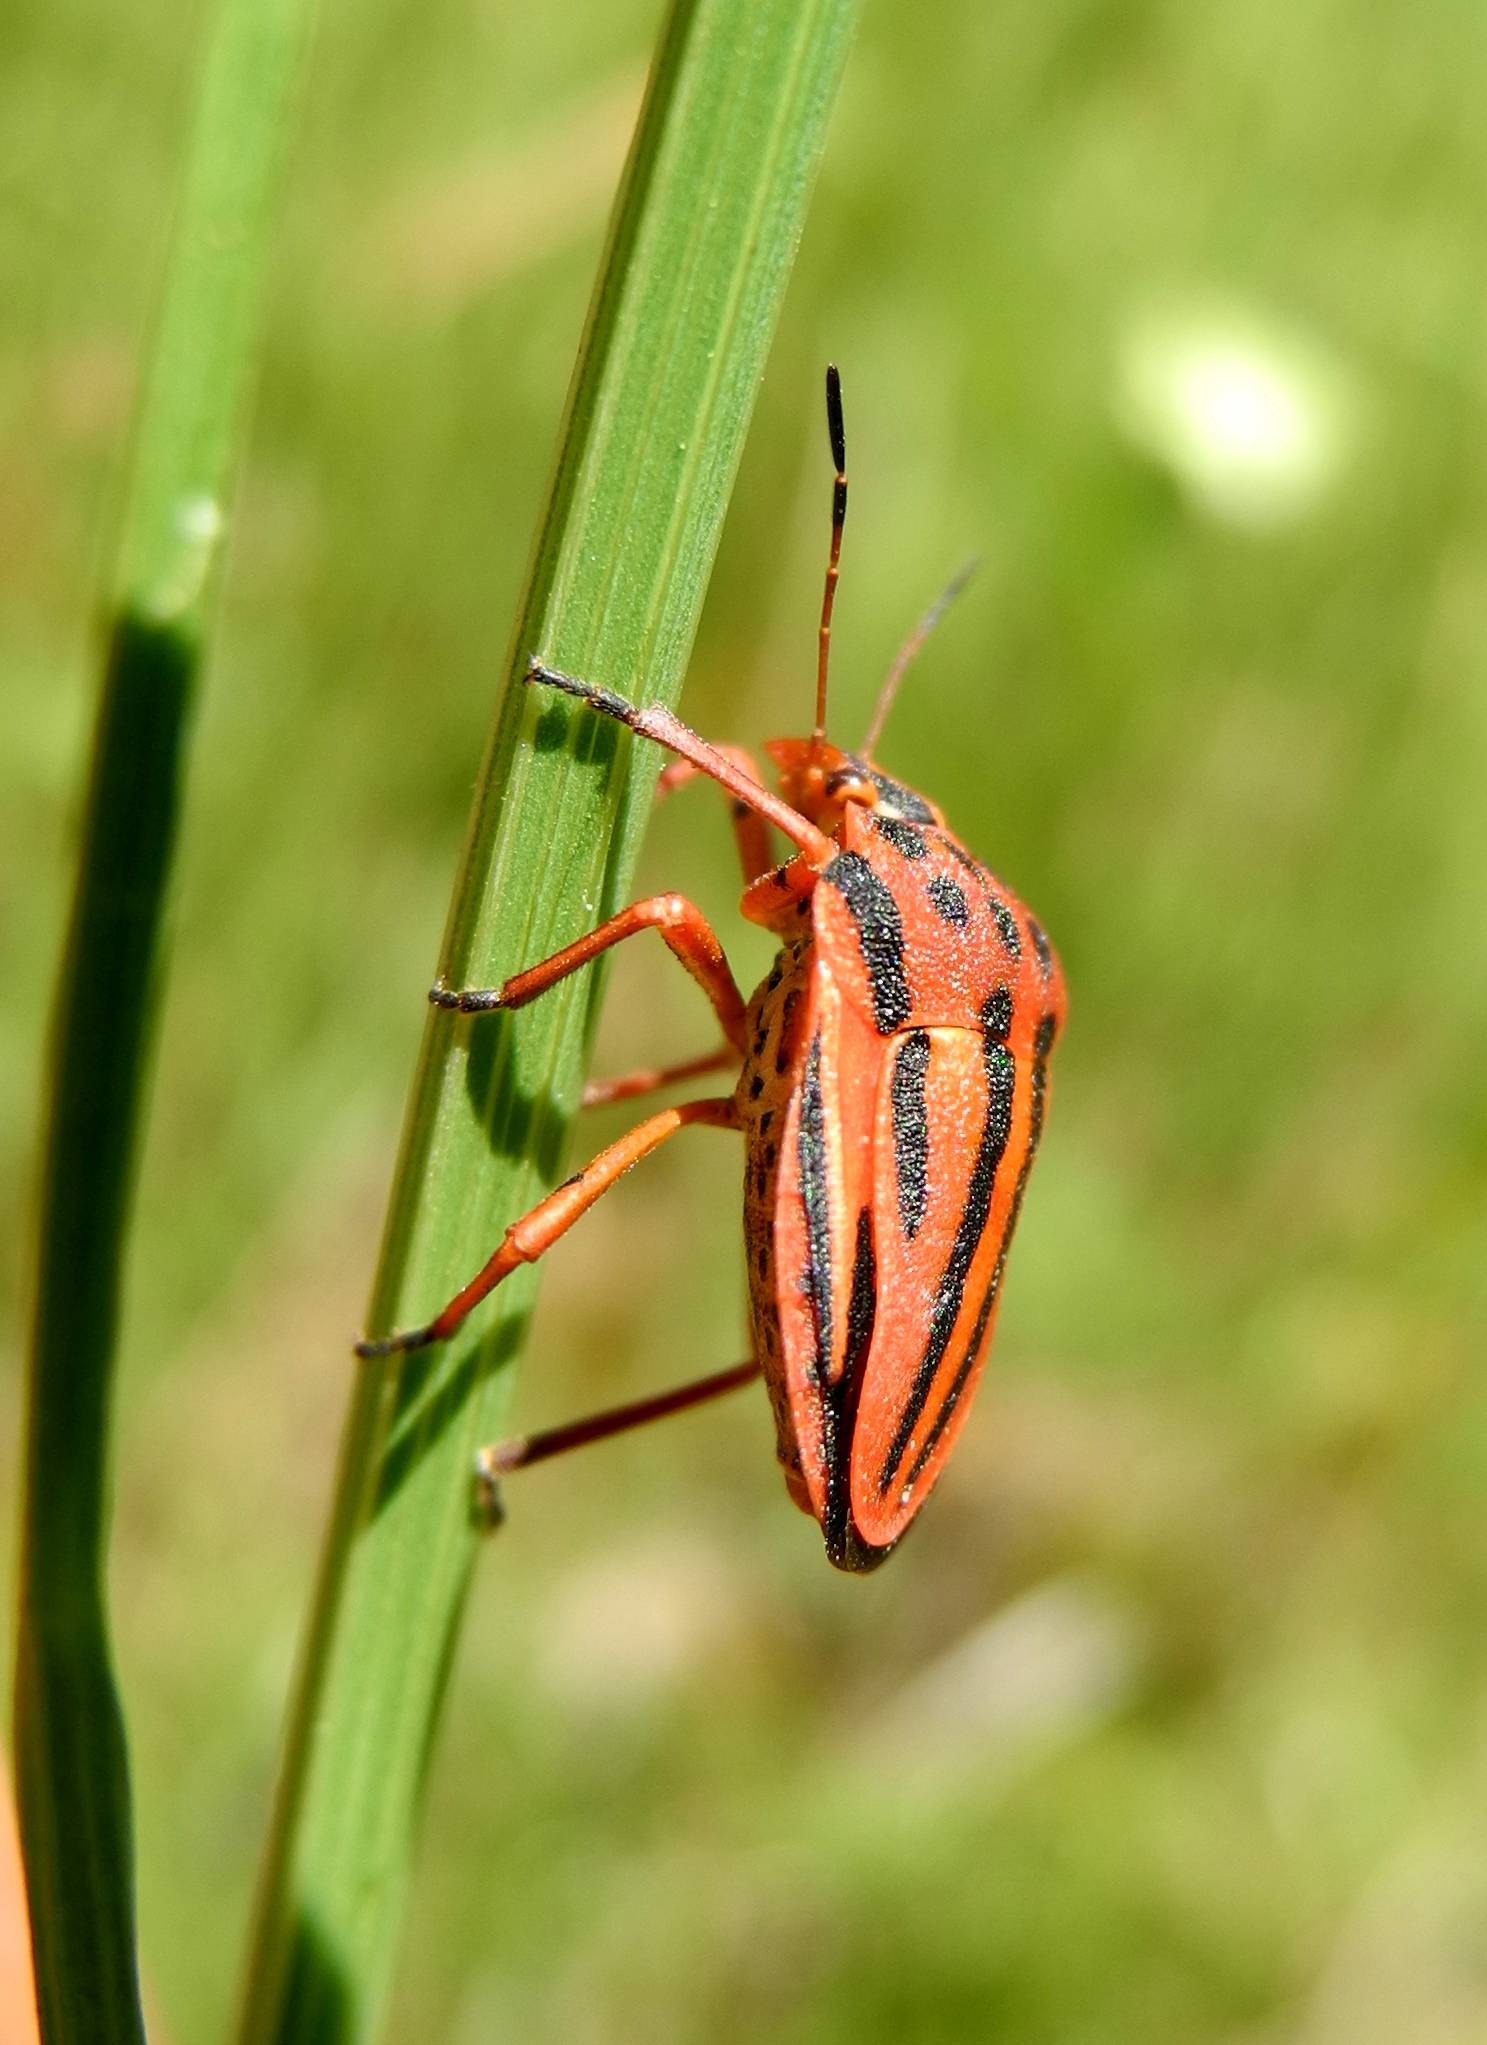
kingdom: Animalia
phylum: Arthropoda
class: Insecta
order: Hemiptera
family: Pentatomidae
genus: Graphosoma
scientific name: Graphosoma semipunctatum
